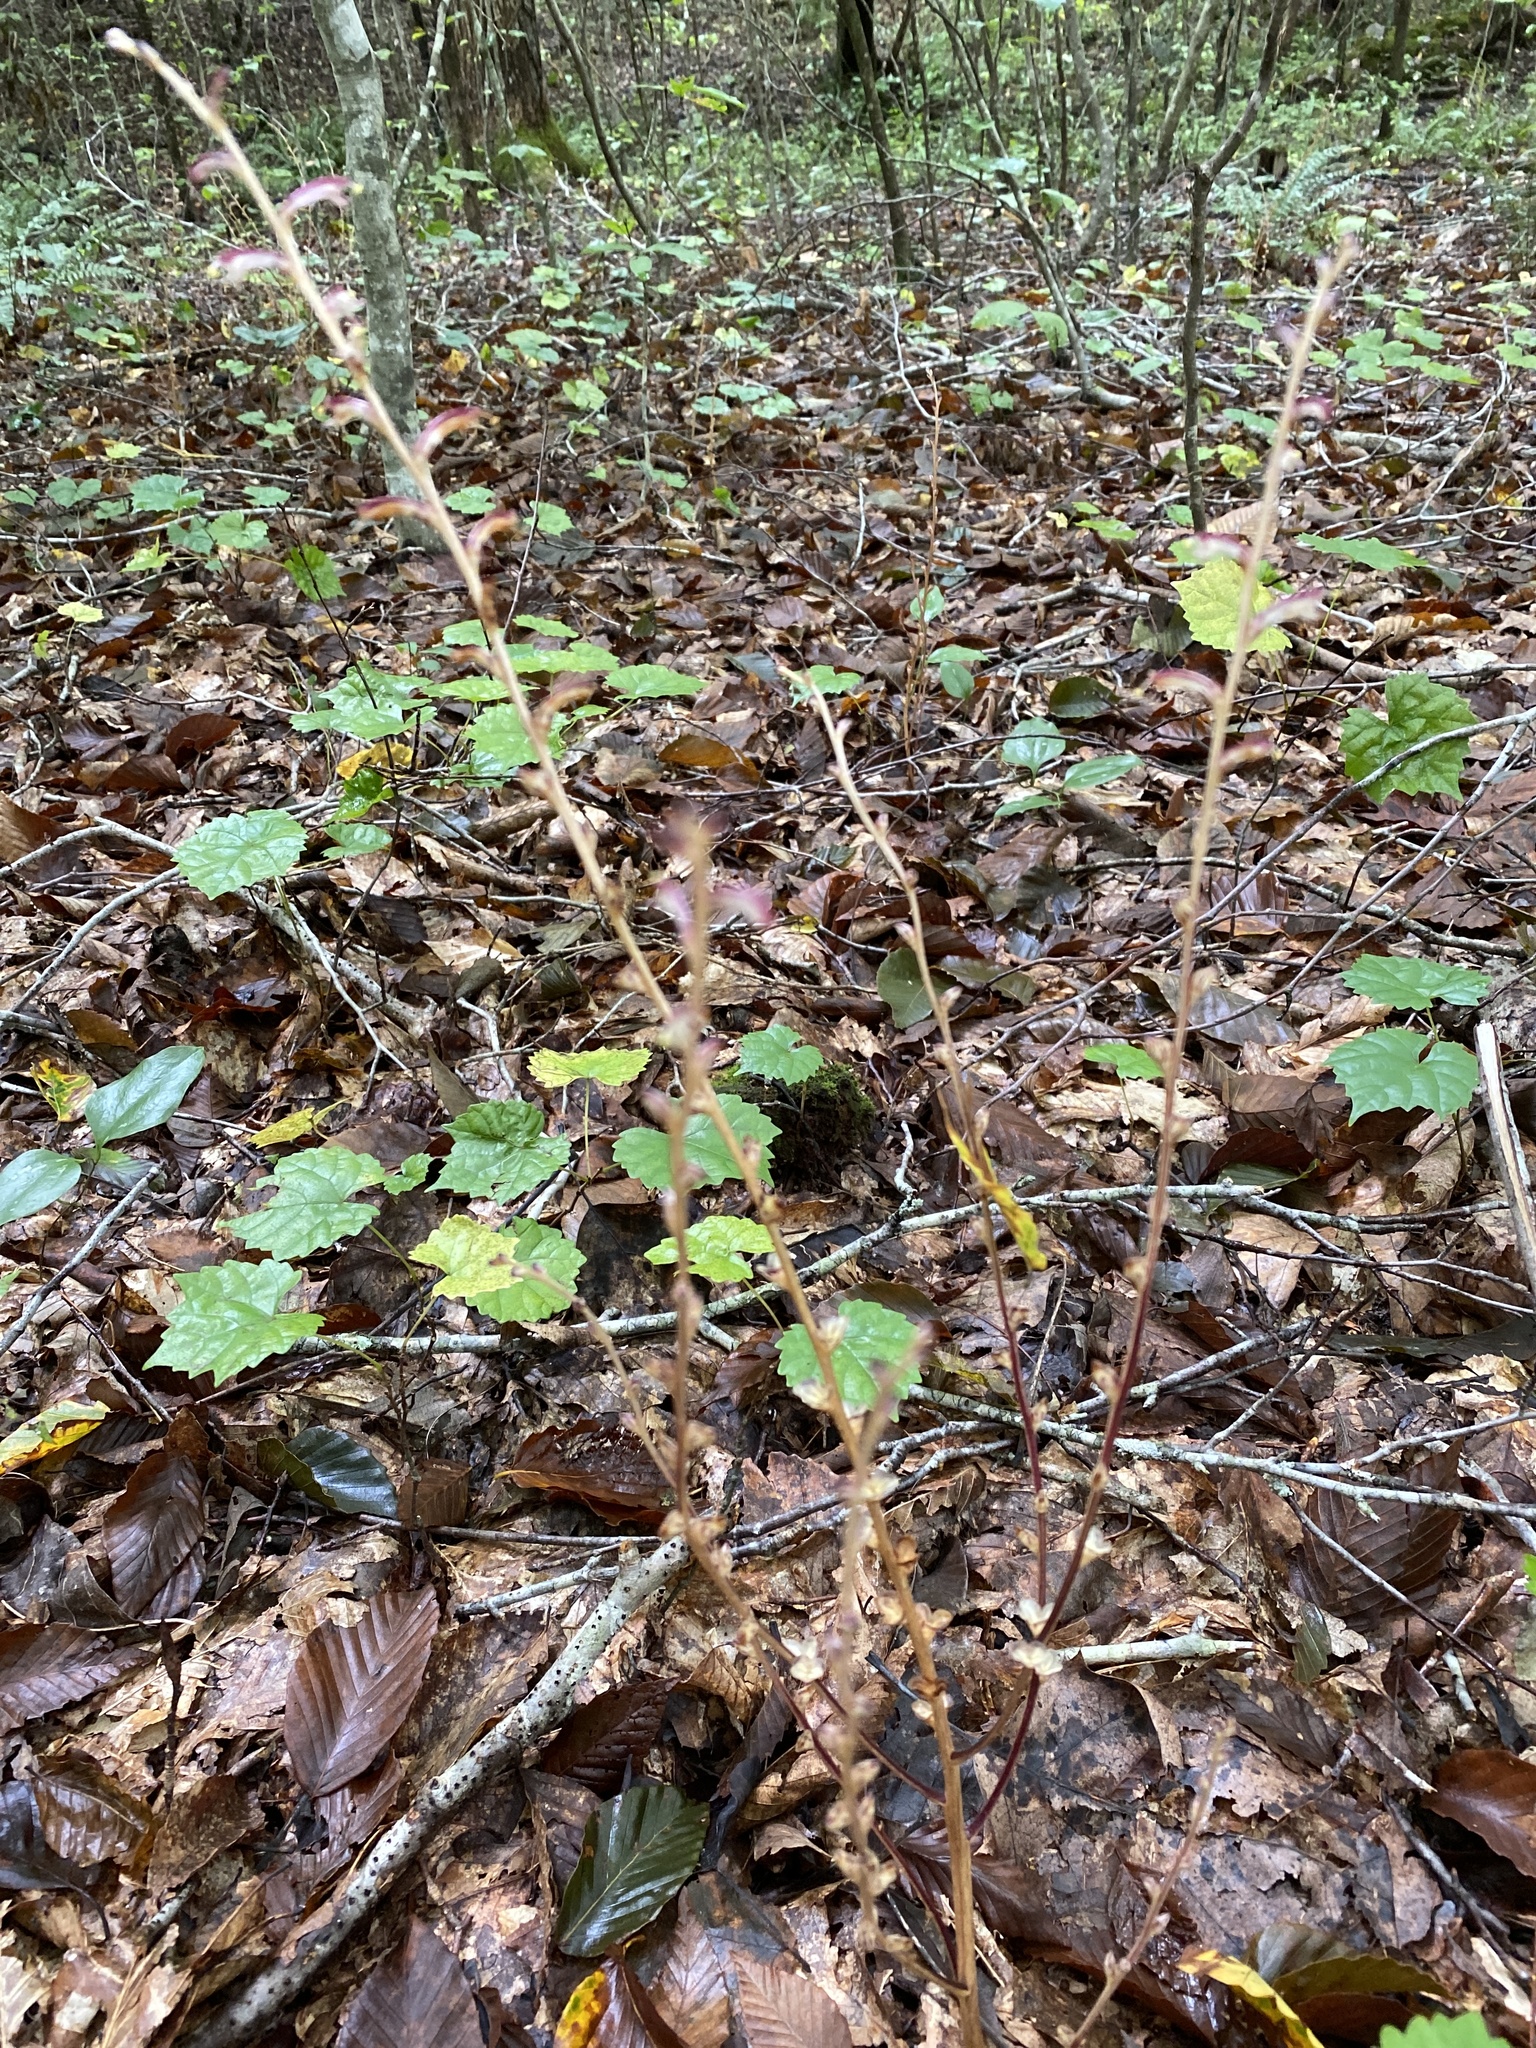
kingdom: Plantae
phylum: Tracheophyta
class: Magnoliopsida
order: Lamiales
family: Orobanchaceae
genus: Epifagus
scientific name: Epifagus virginiana
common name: Beechdrops
